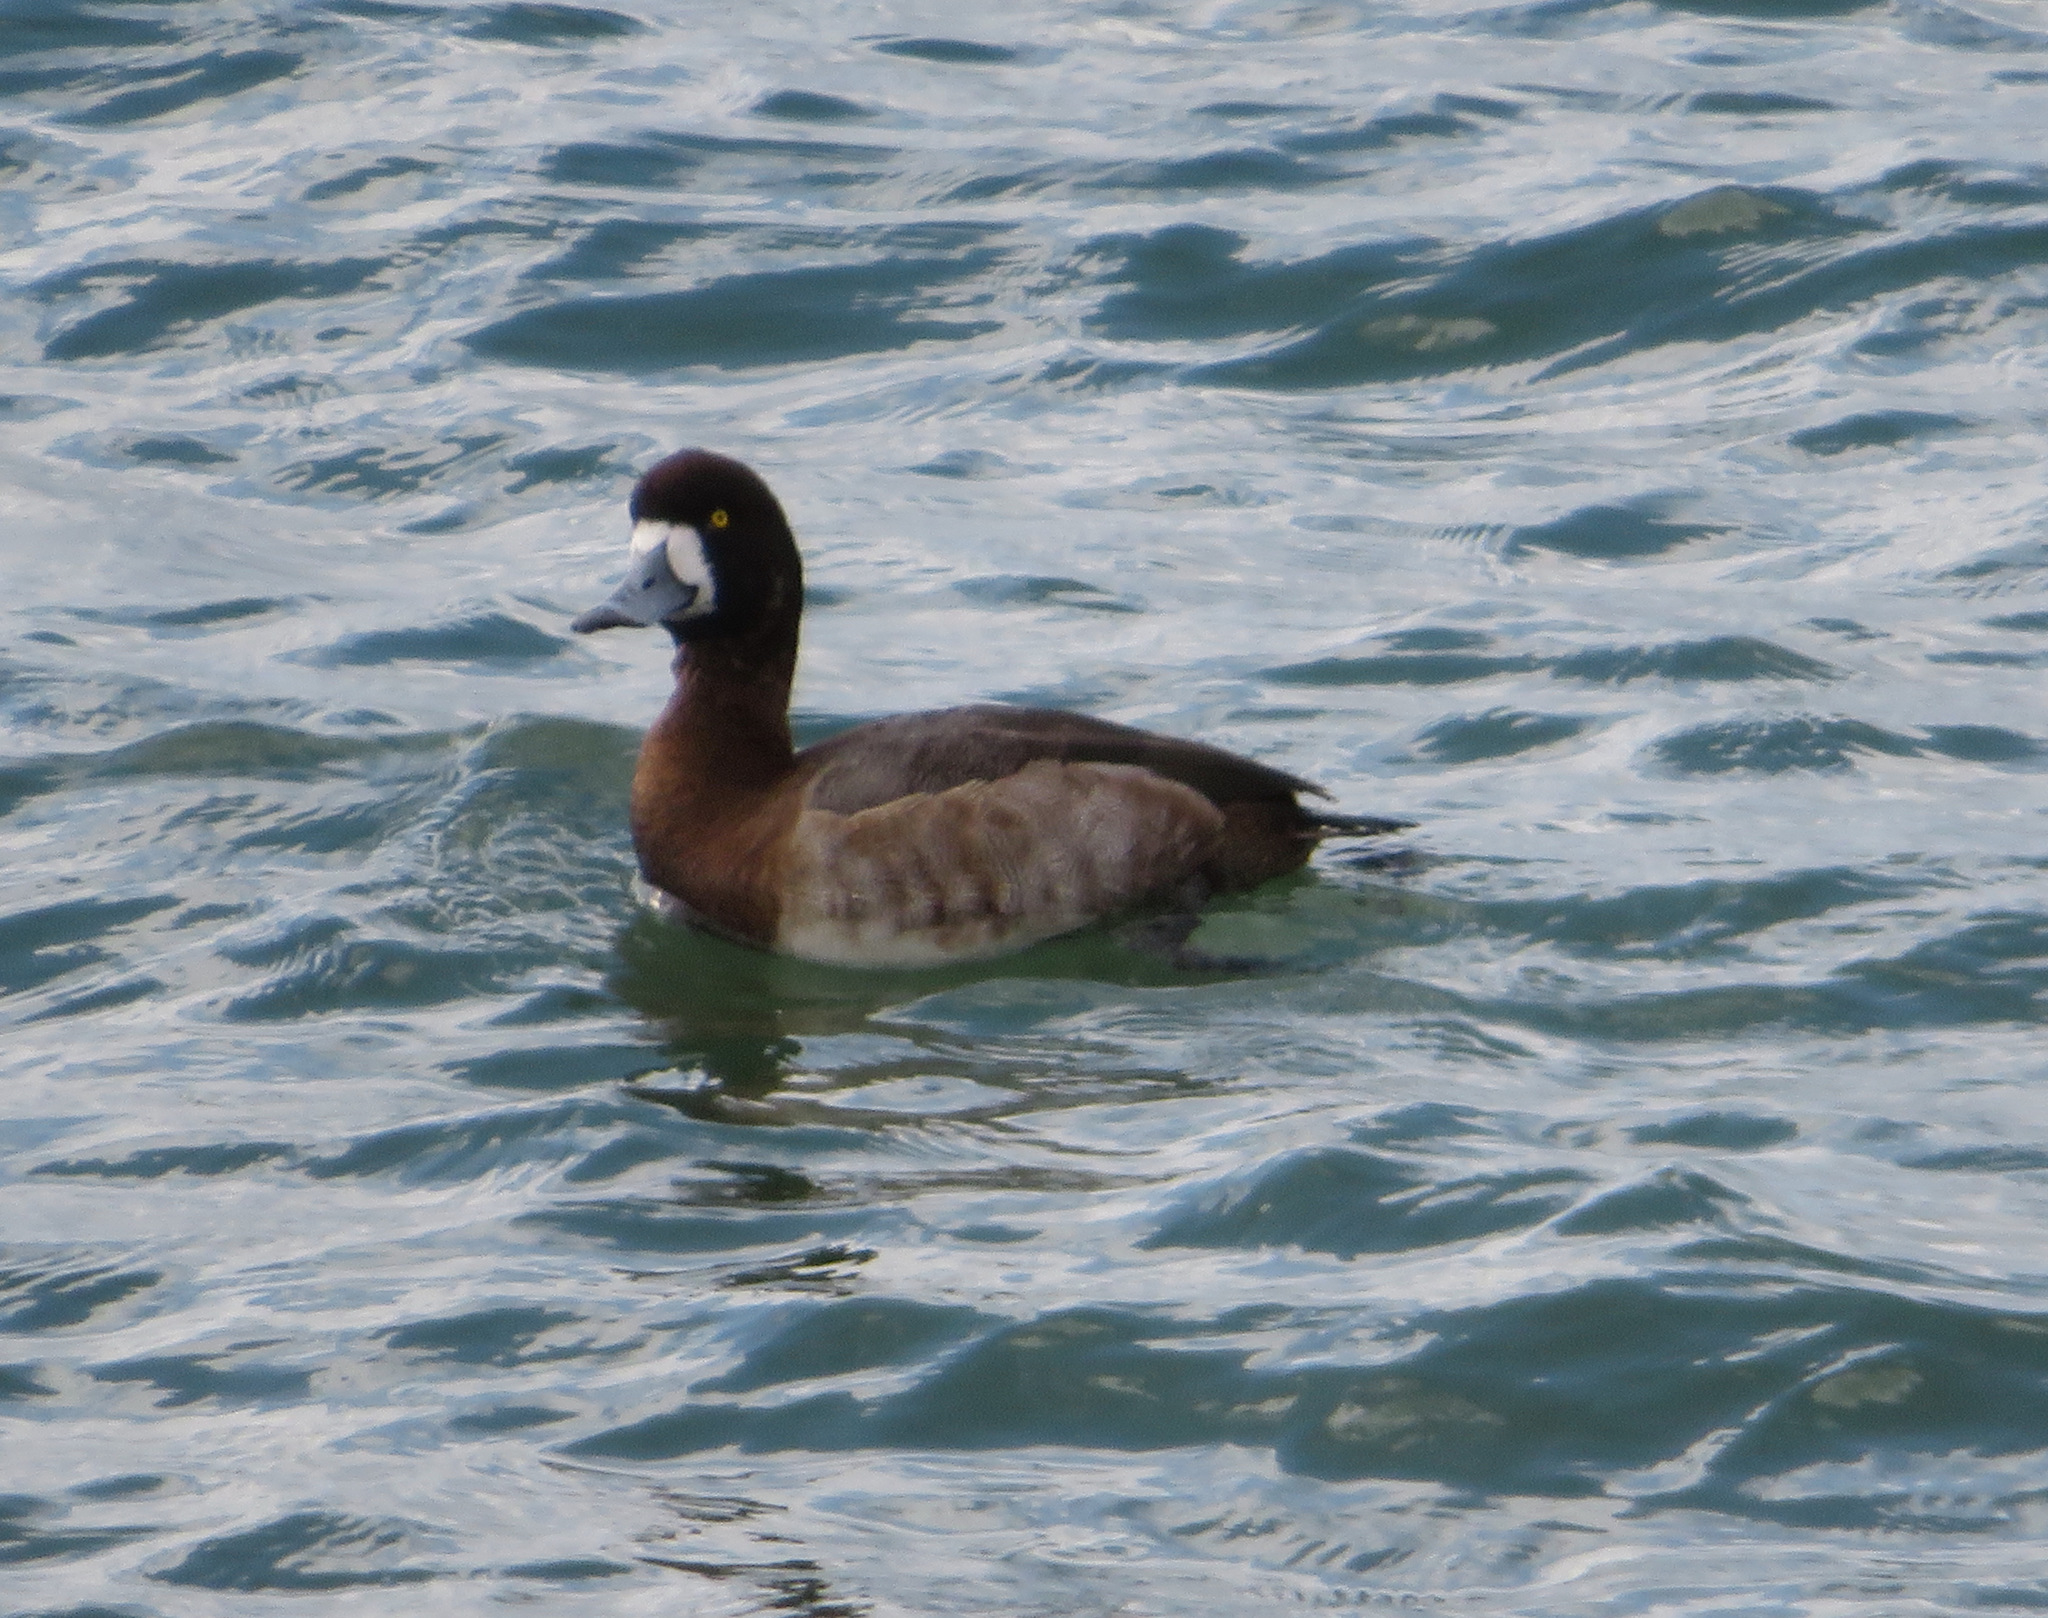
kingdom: Animalia
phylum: Chordata
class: Aves
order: Anseriformes
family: Anatidae
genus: Aythya
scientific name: Aythya marila
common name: Greater scaup
